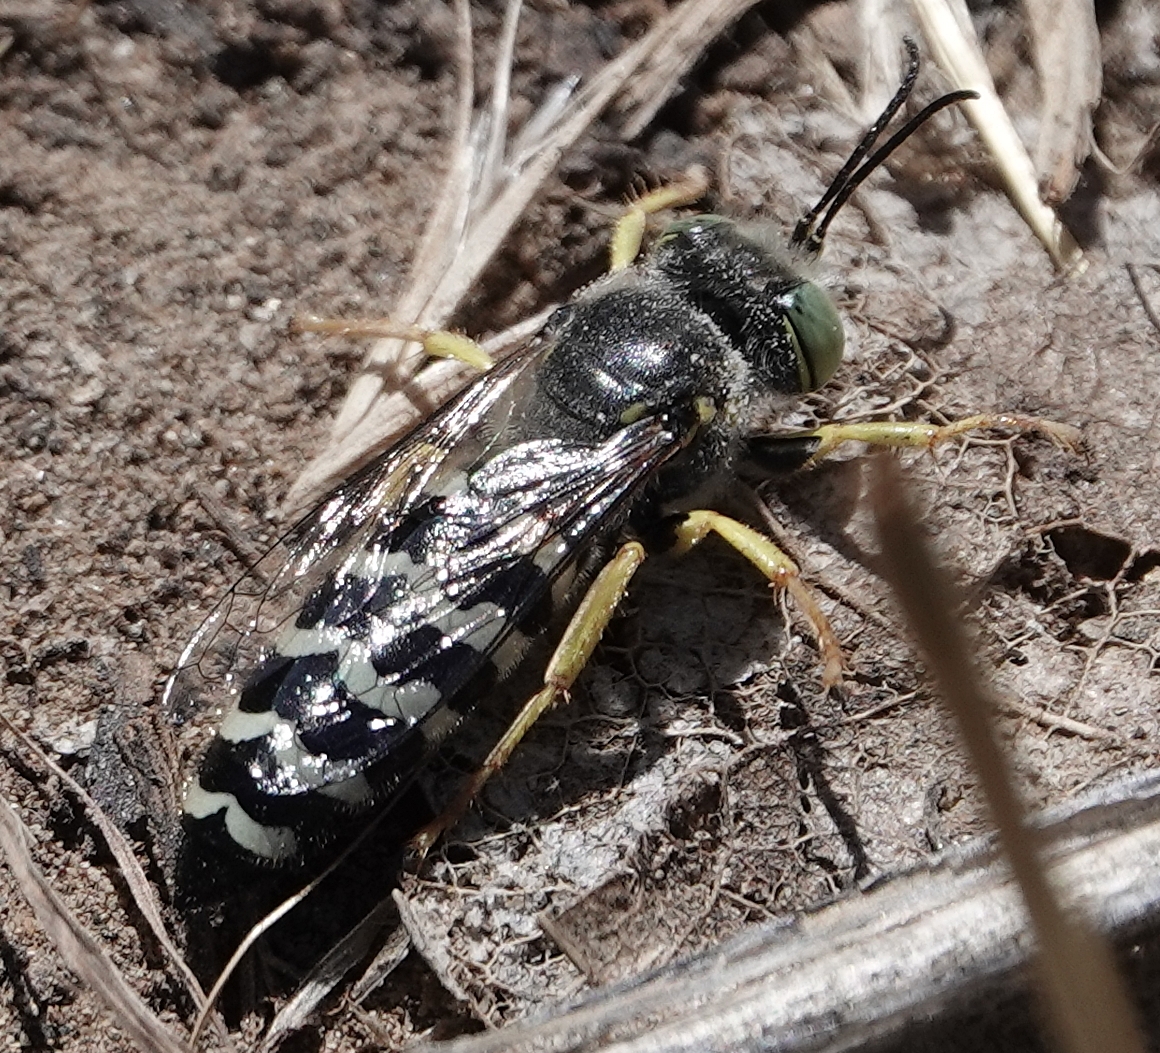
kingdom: Animalia
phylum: Arthropoda
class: Insecta
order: Hymenoptera
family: Crabronidae
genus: Bembix
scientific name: Bembix americana
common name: American sand wasp
